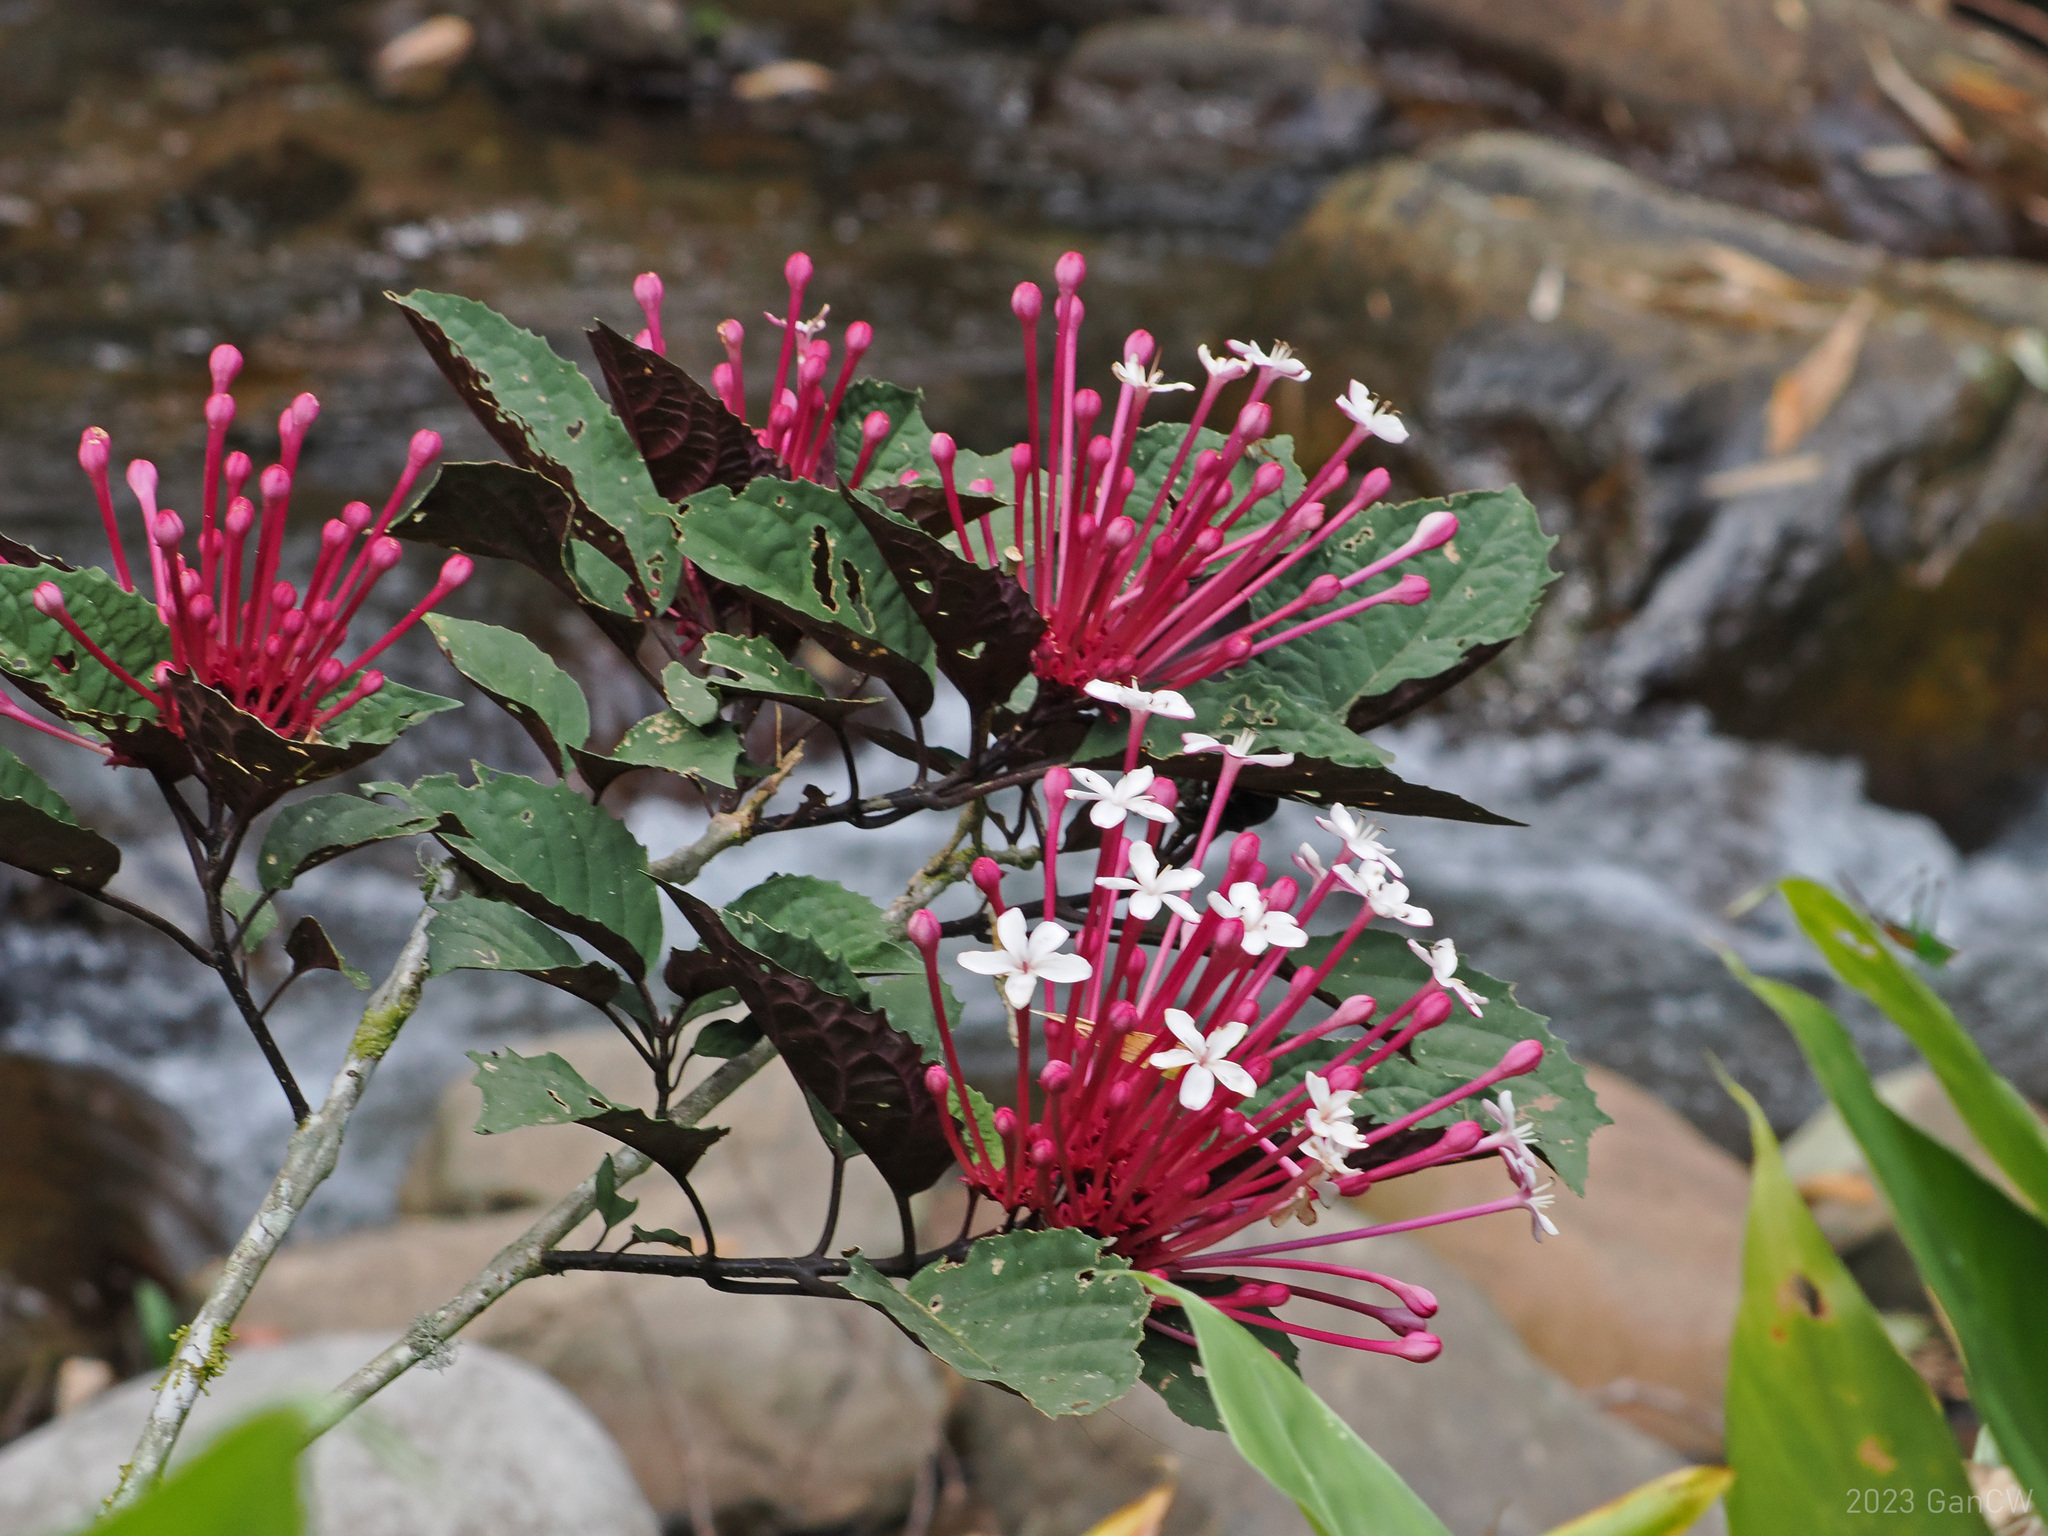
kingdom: Plantae
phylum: Tracheophyta
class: Magnoliopsida
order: Lamiales
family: Lamiaceae
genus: Clerodendrum
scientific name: Clerodendrum quadriloculare
